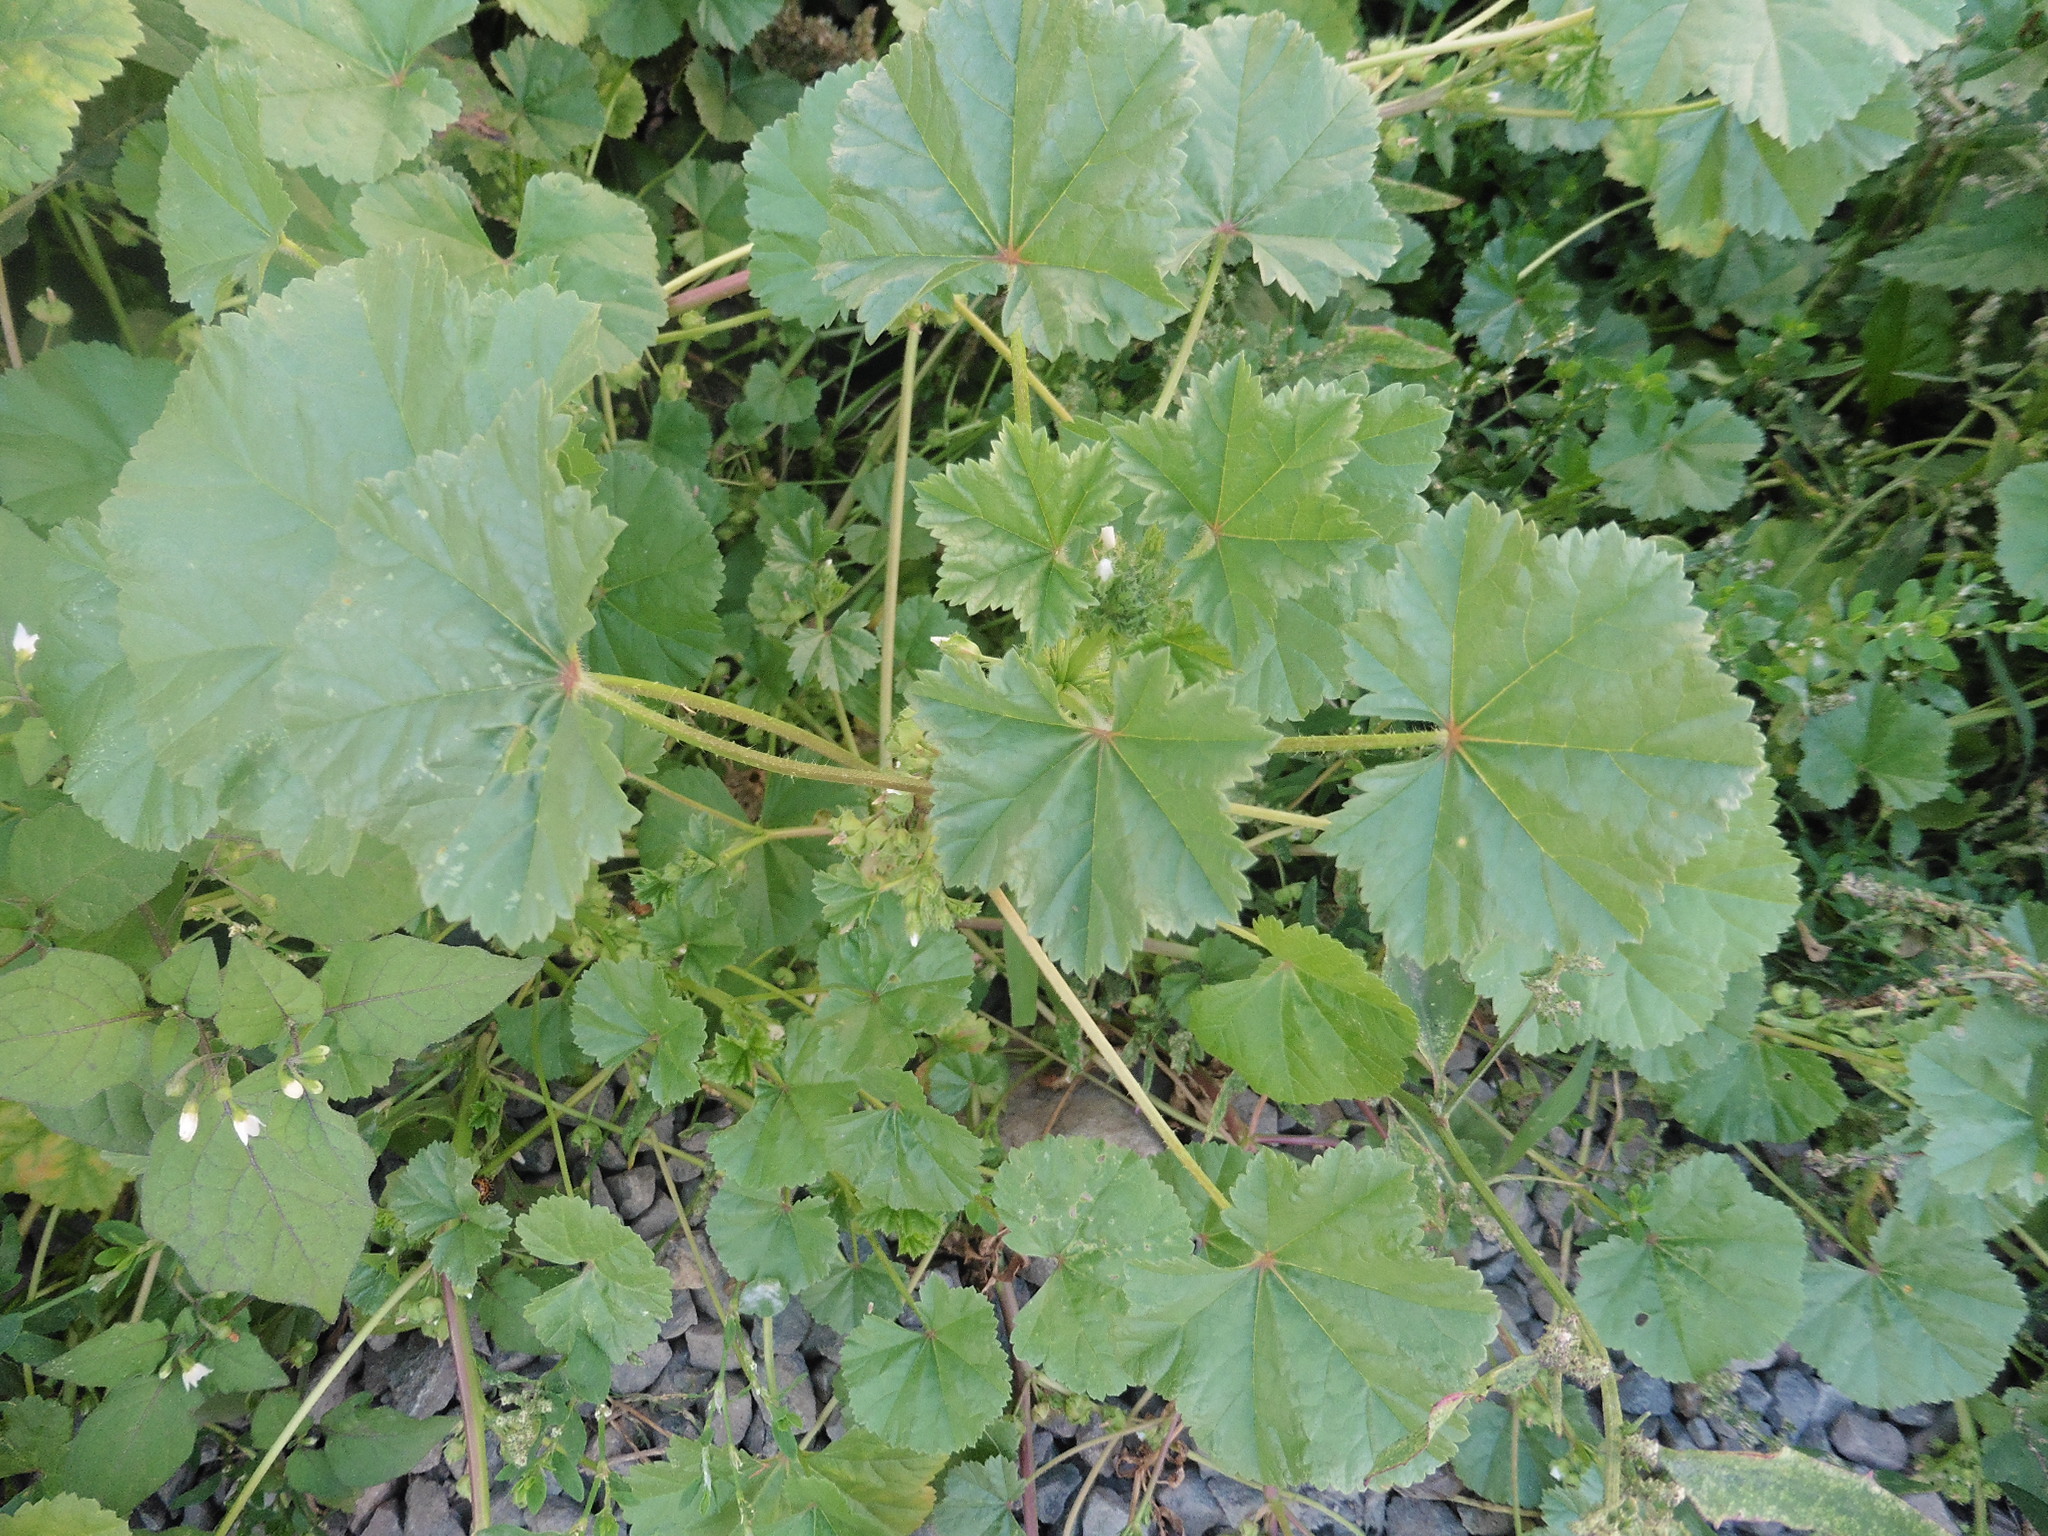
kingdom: Plantae
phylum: Tracheophyta
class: Magnoliopsida
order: Malvales
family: Malvaceae
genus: Malva
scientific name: Malva pusilla
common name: Small mallow
